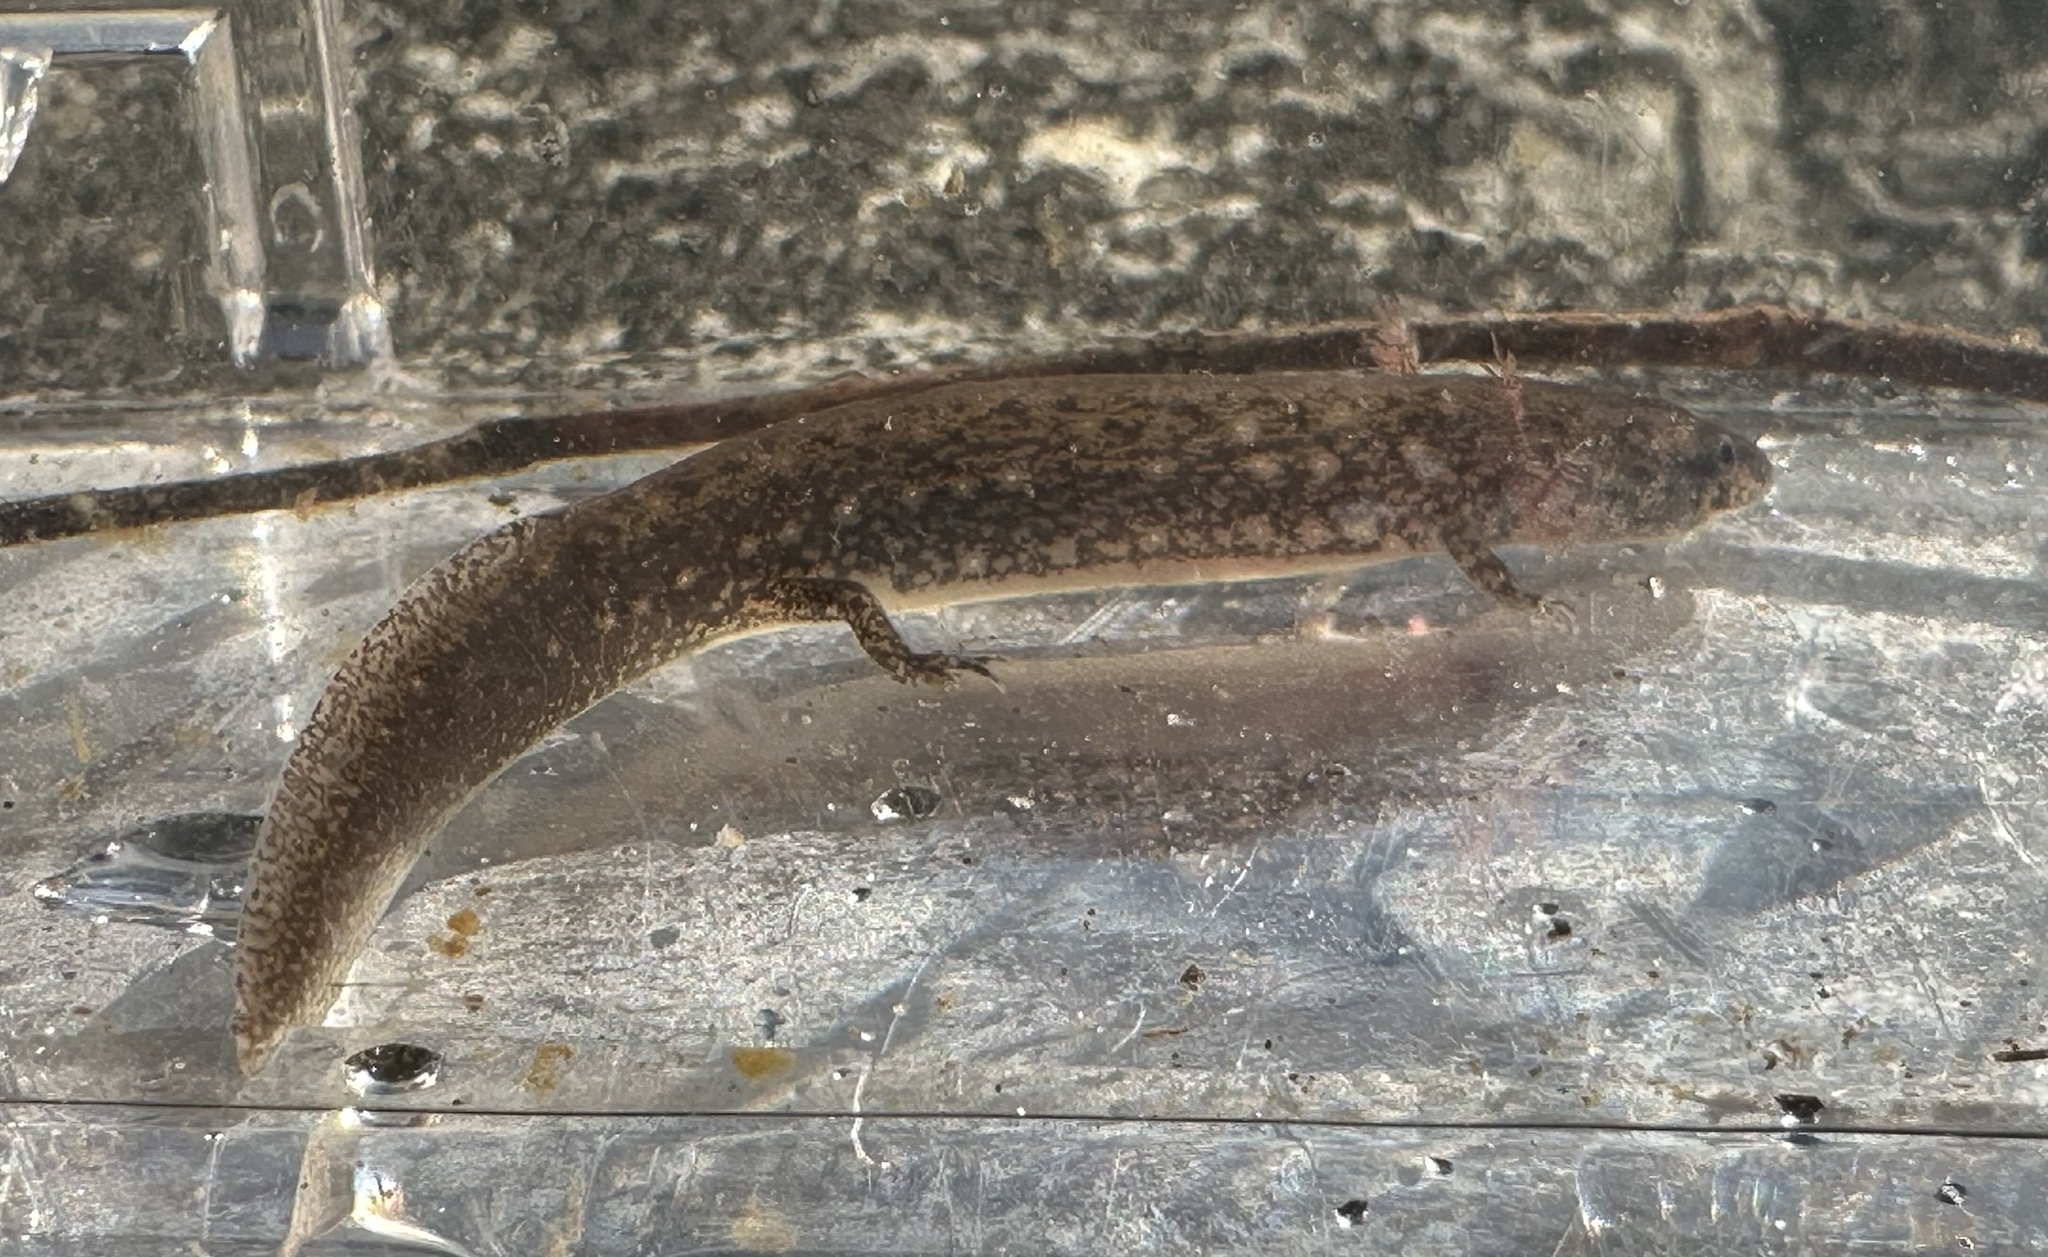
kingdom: Animalia
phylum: Chordata
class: Amphibia
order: Caudata
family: Plethodontidae
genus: Eurycea
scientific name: Eurycea arenicola
